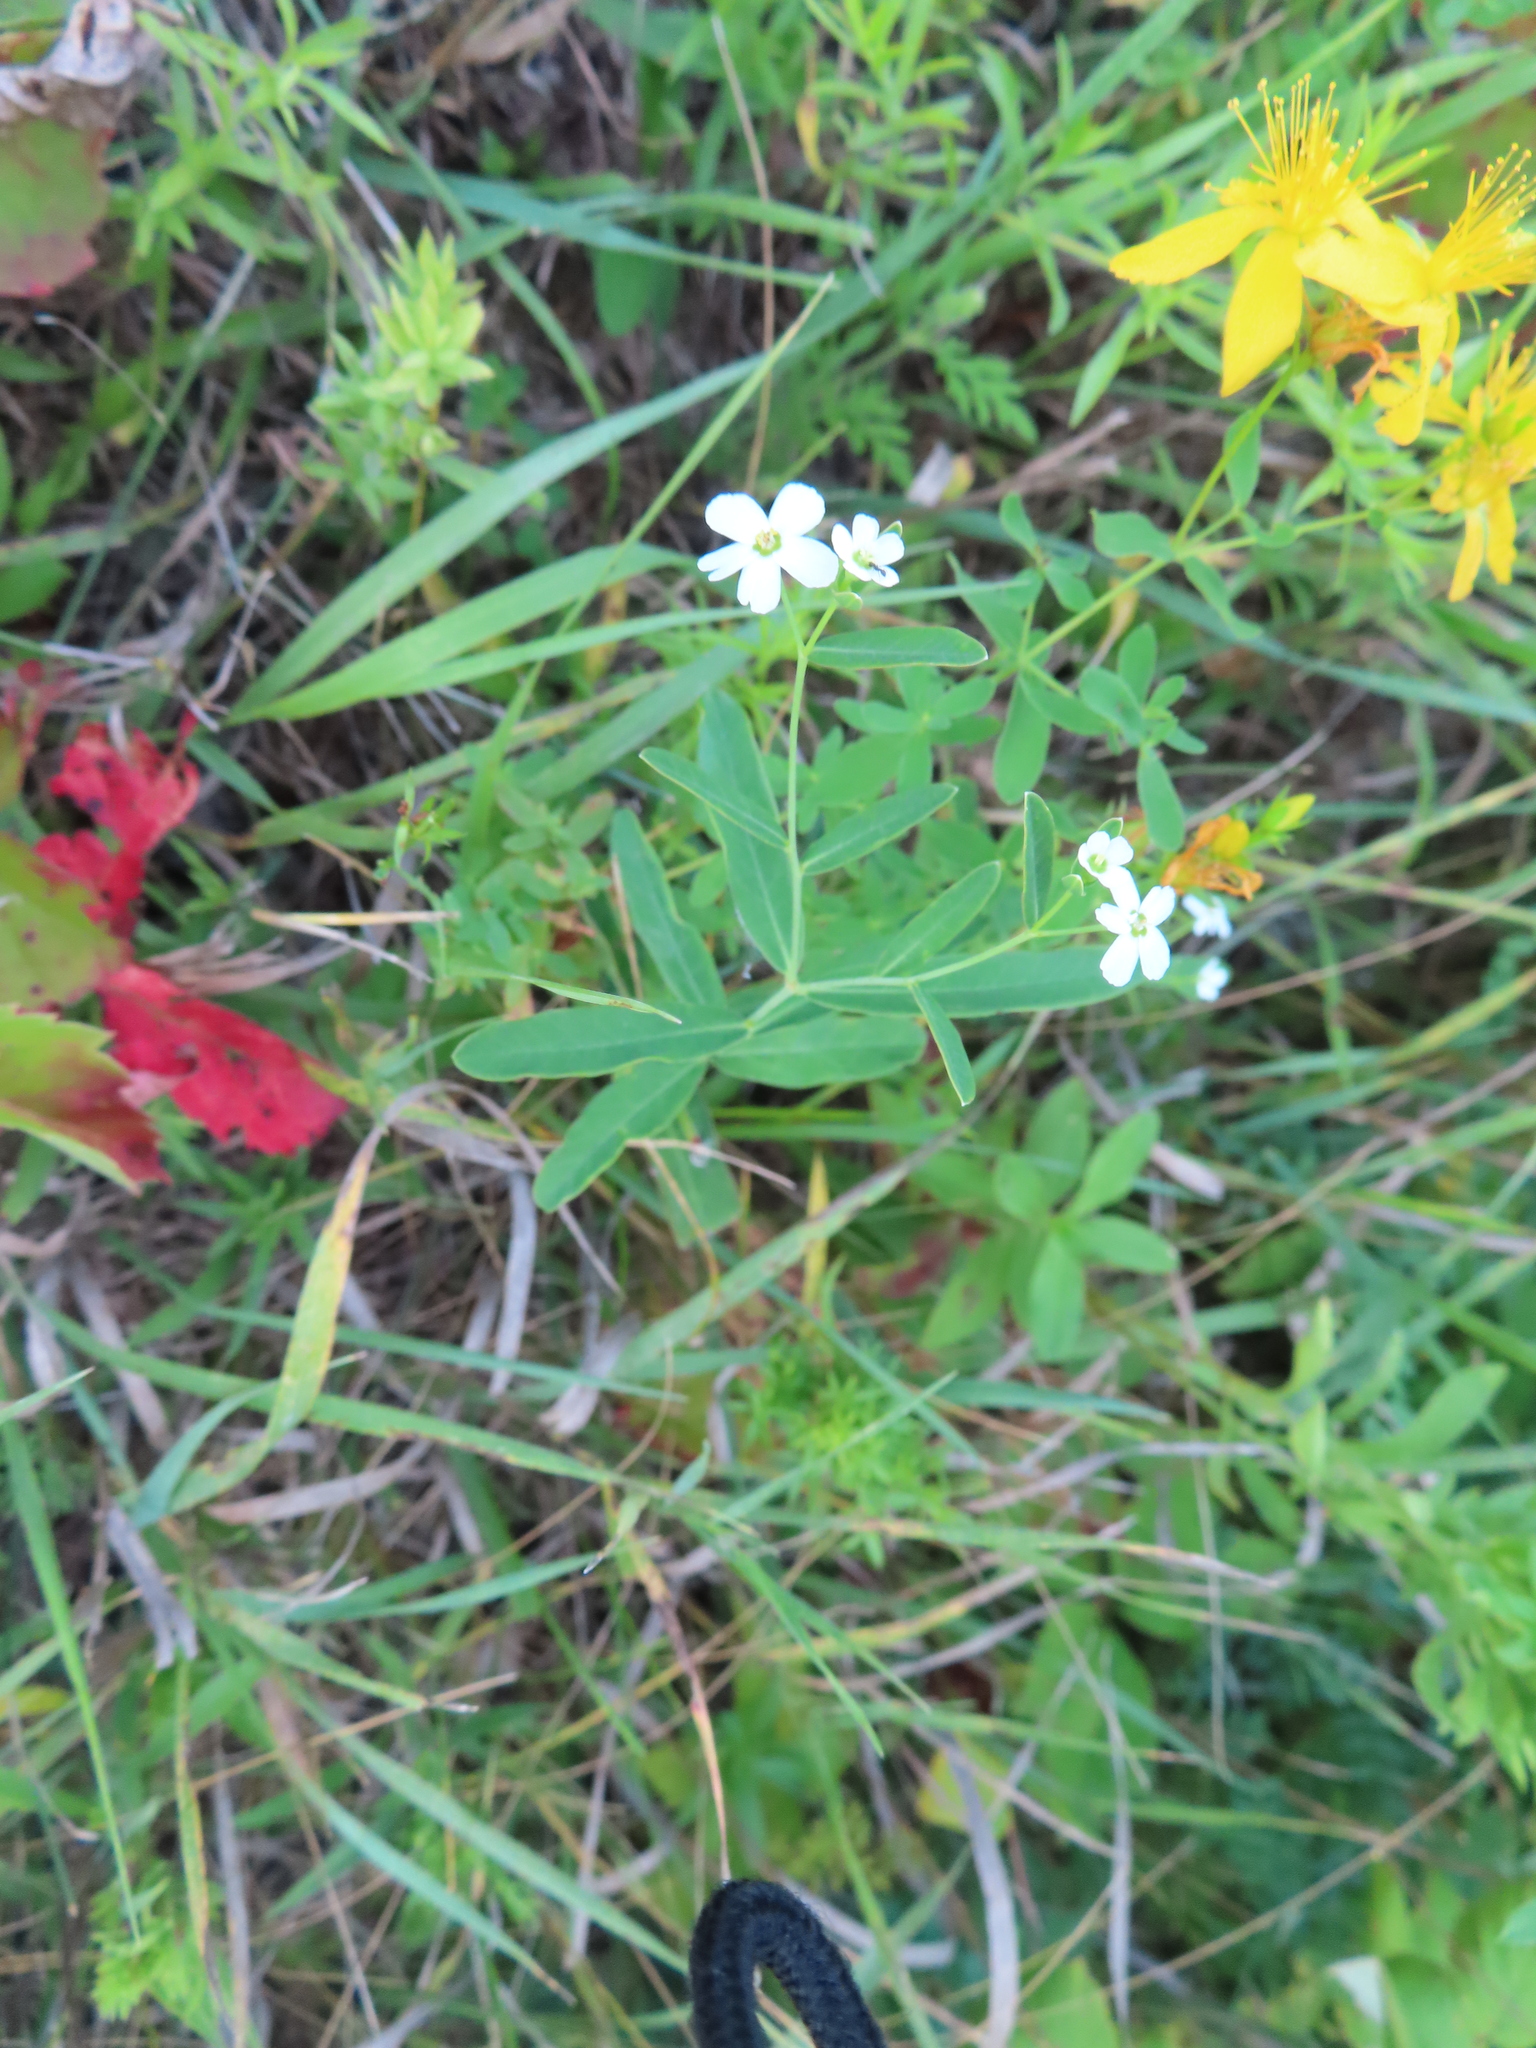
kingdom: Plantae
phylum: Tracheophyta
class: Magnoliopsida
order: Malpighiales
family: Euphorbiaceae
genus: Euphorbia
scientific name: Euphorbia corollata
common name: Flowering spurge
